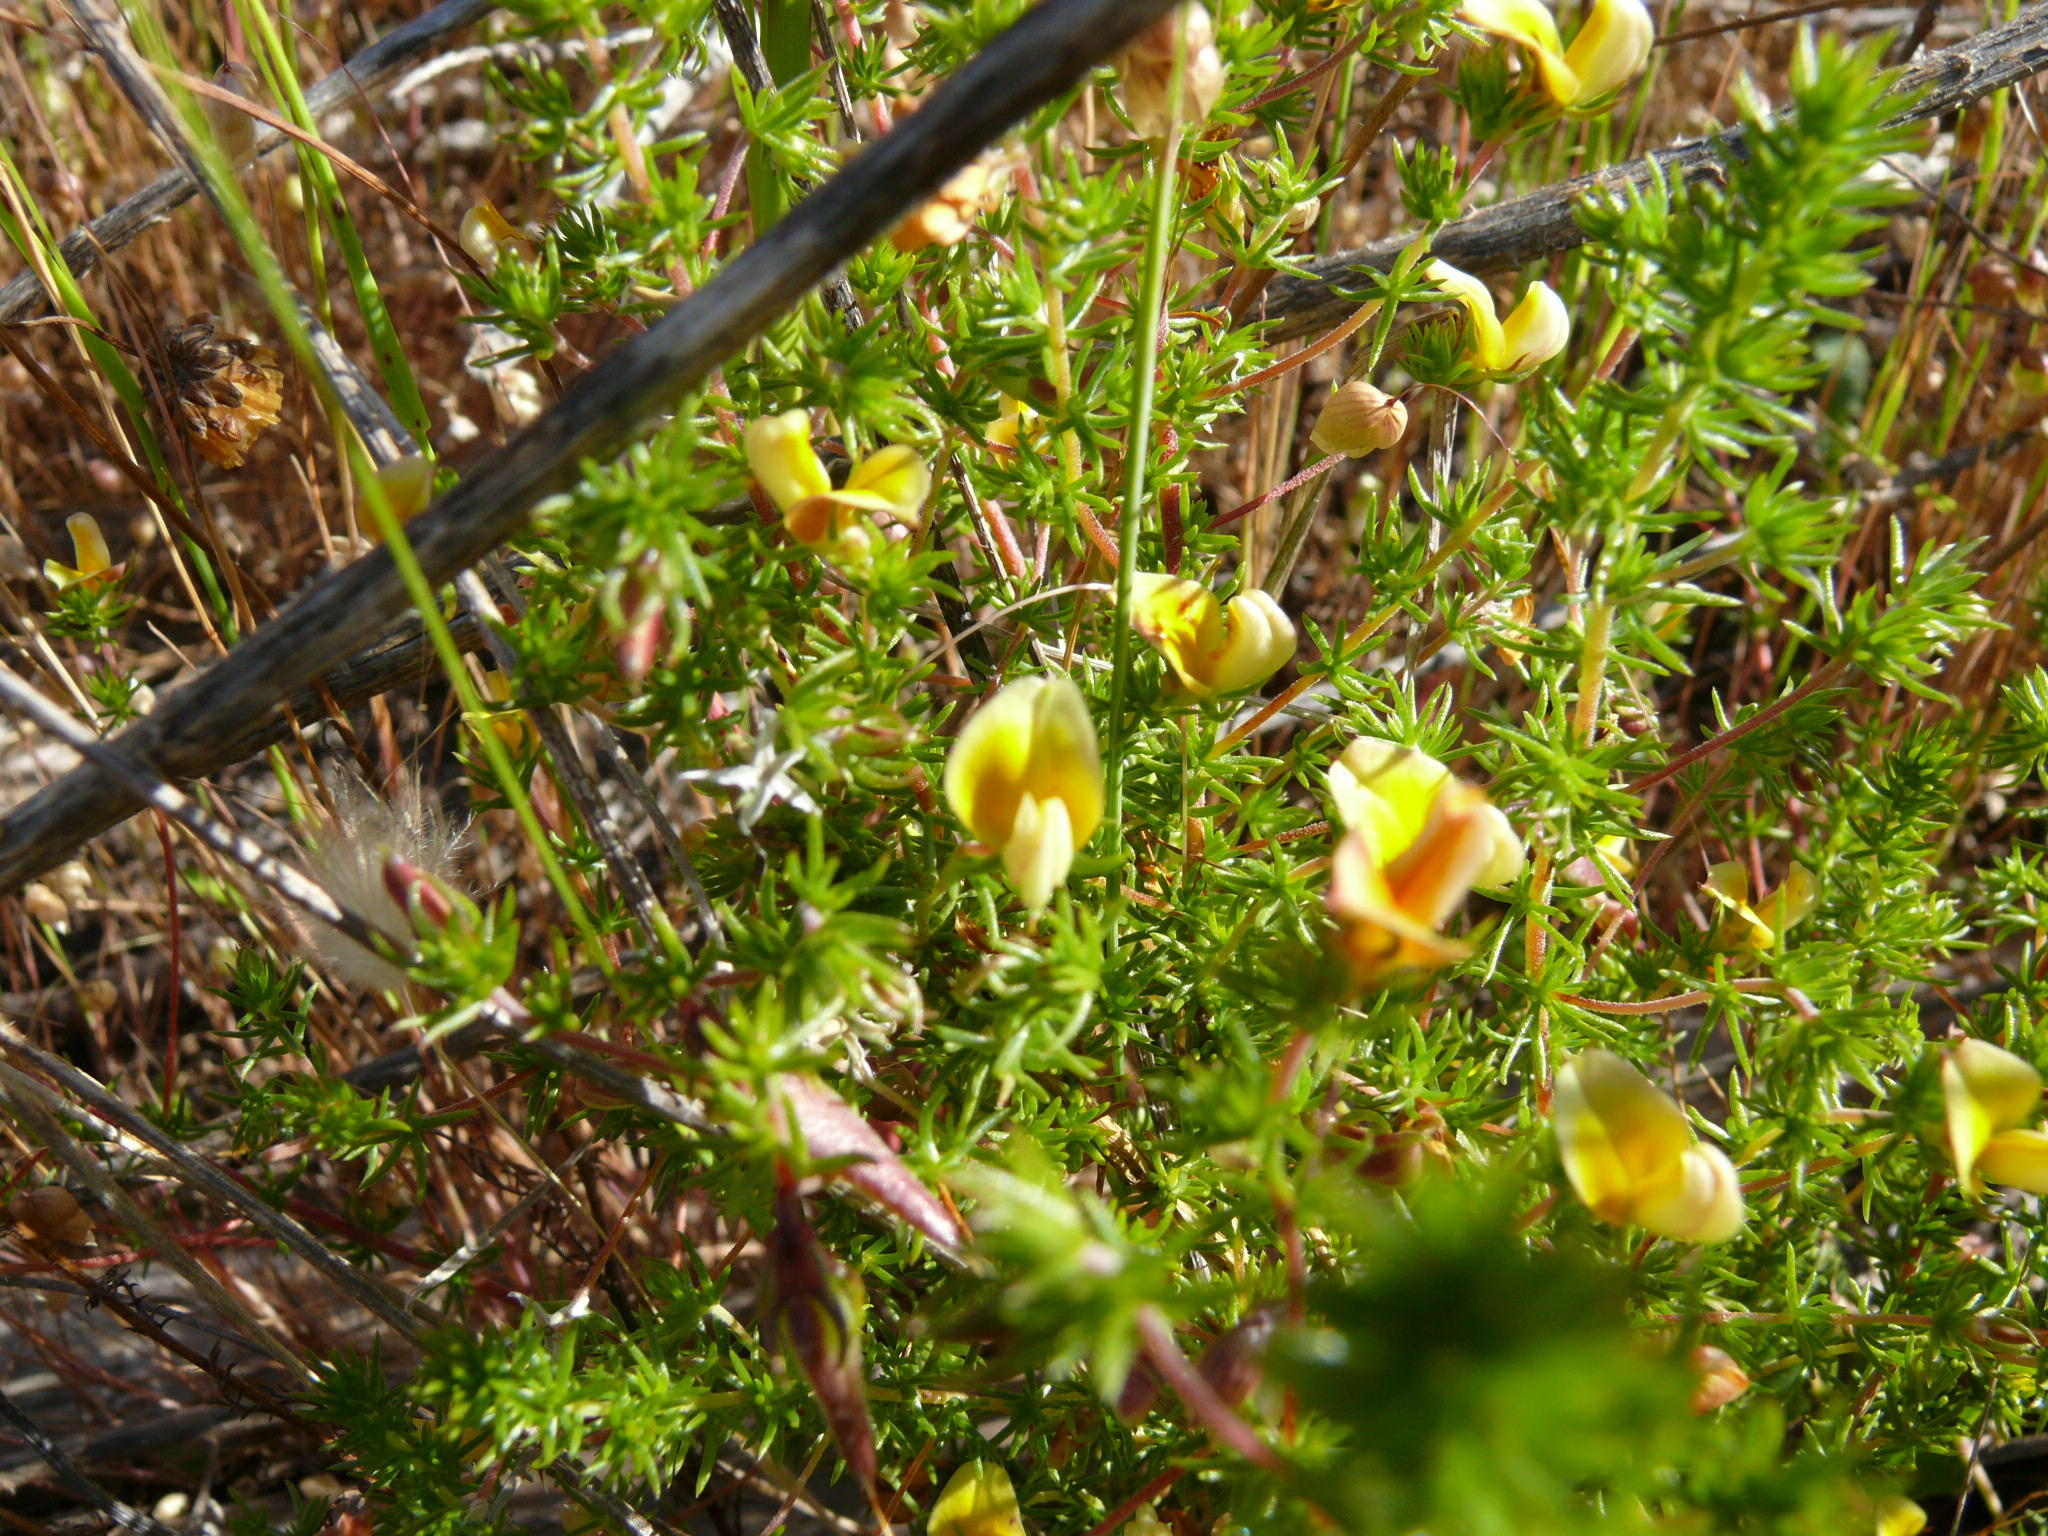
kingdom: Plantae
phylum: Tracheophyta
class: Magnoliopsida
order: Fabales
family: Fabaceae
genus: Aspalathus
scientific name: Aspalathus retroflexa
